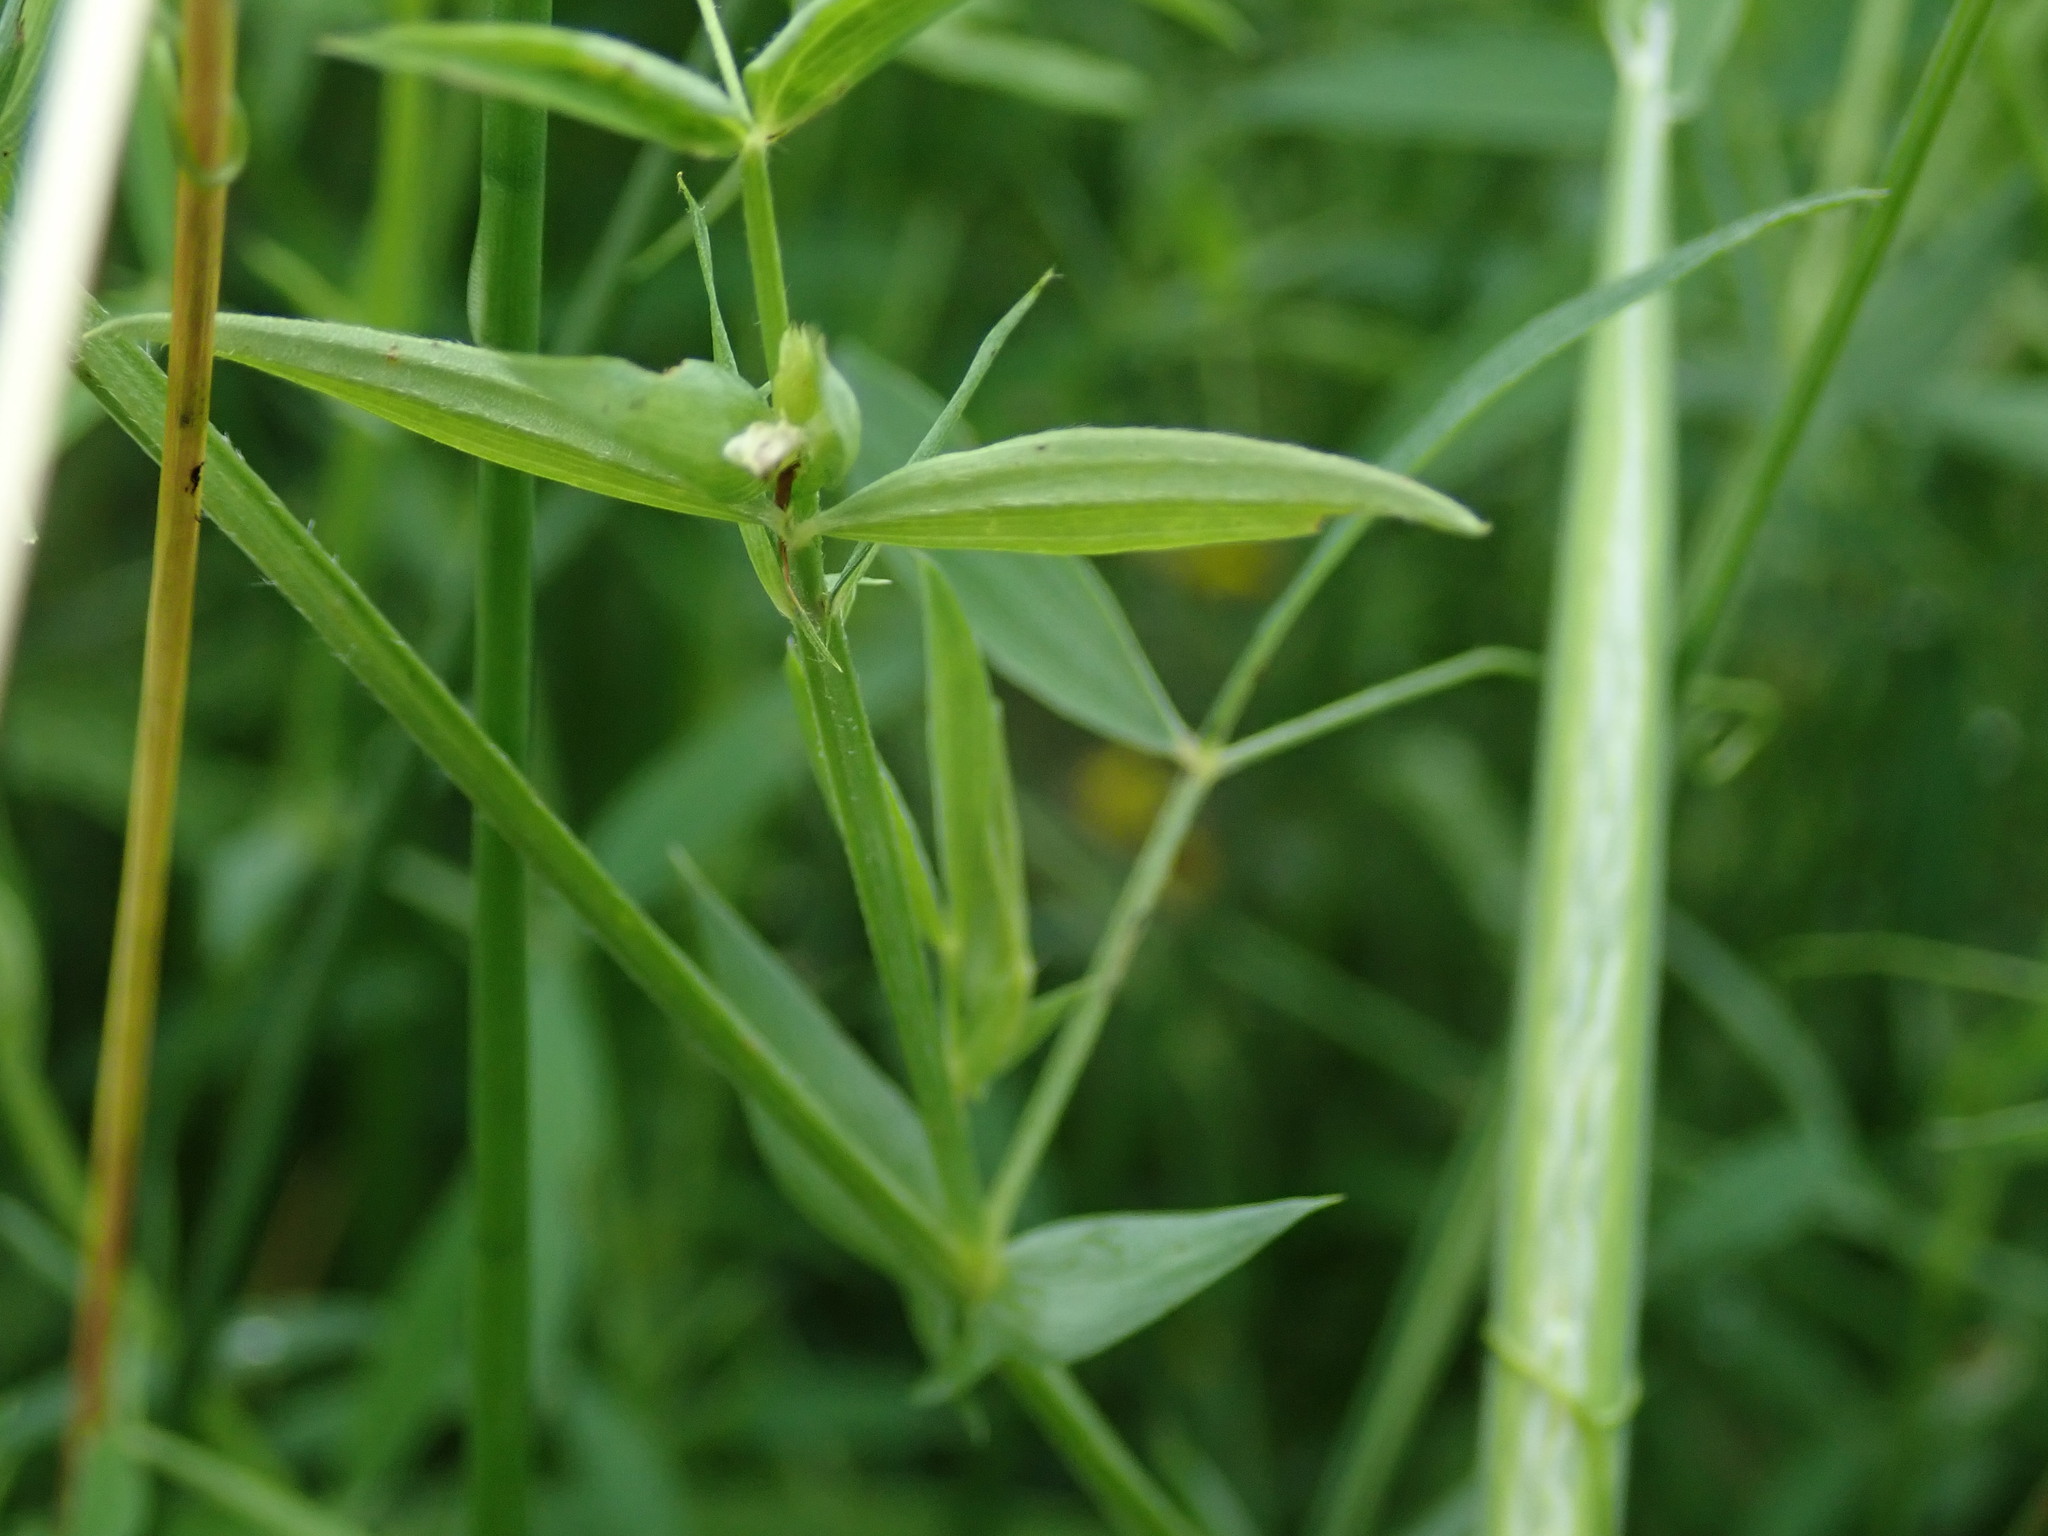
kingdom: Plantae
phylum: Tracheophyta
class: Magnoliopsida
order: Fabales
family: Fabaceae
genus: Lathyrus
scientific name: Lathyrus pratensis
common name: Meadow vetchling
